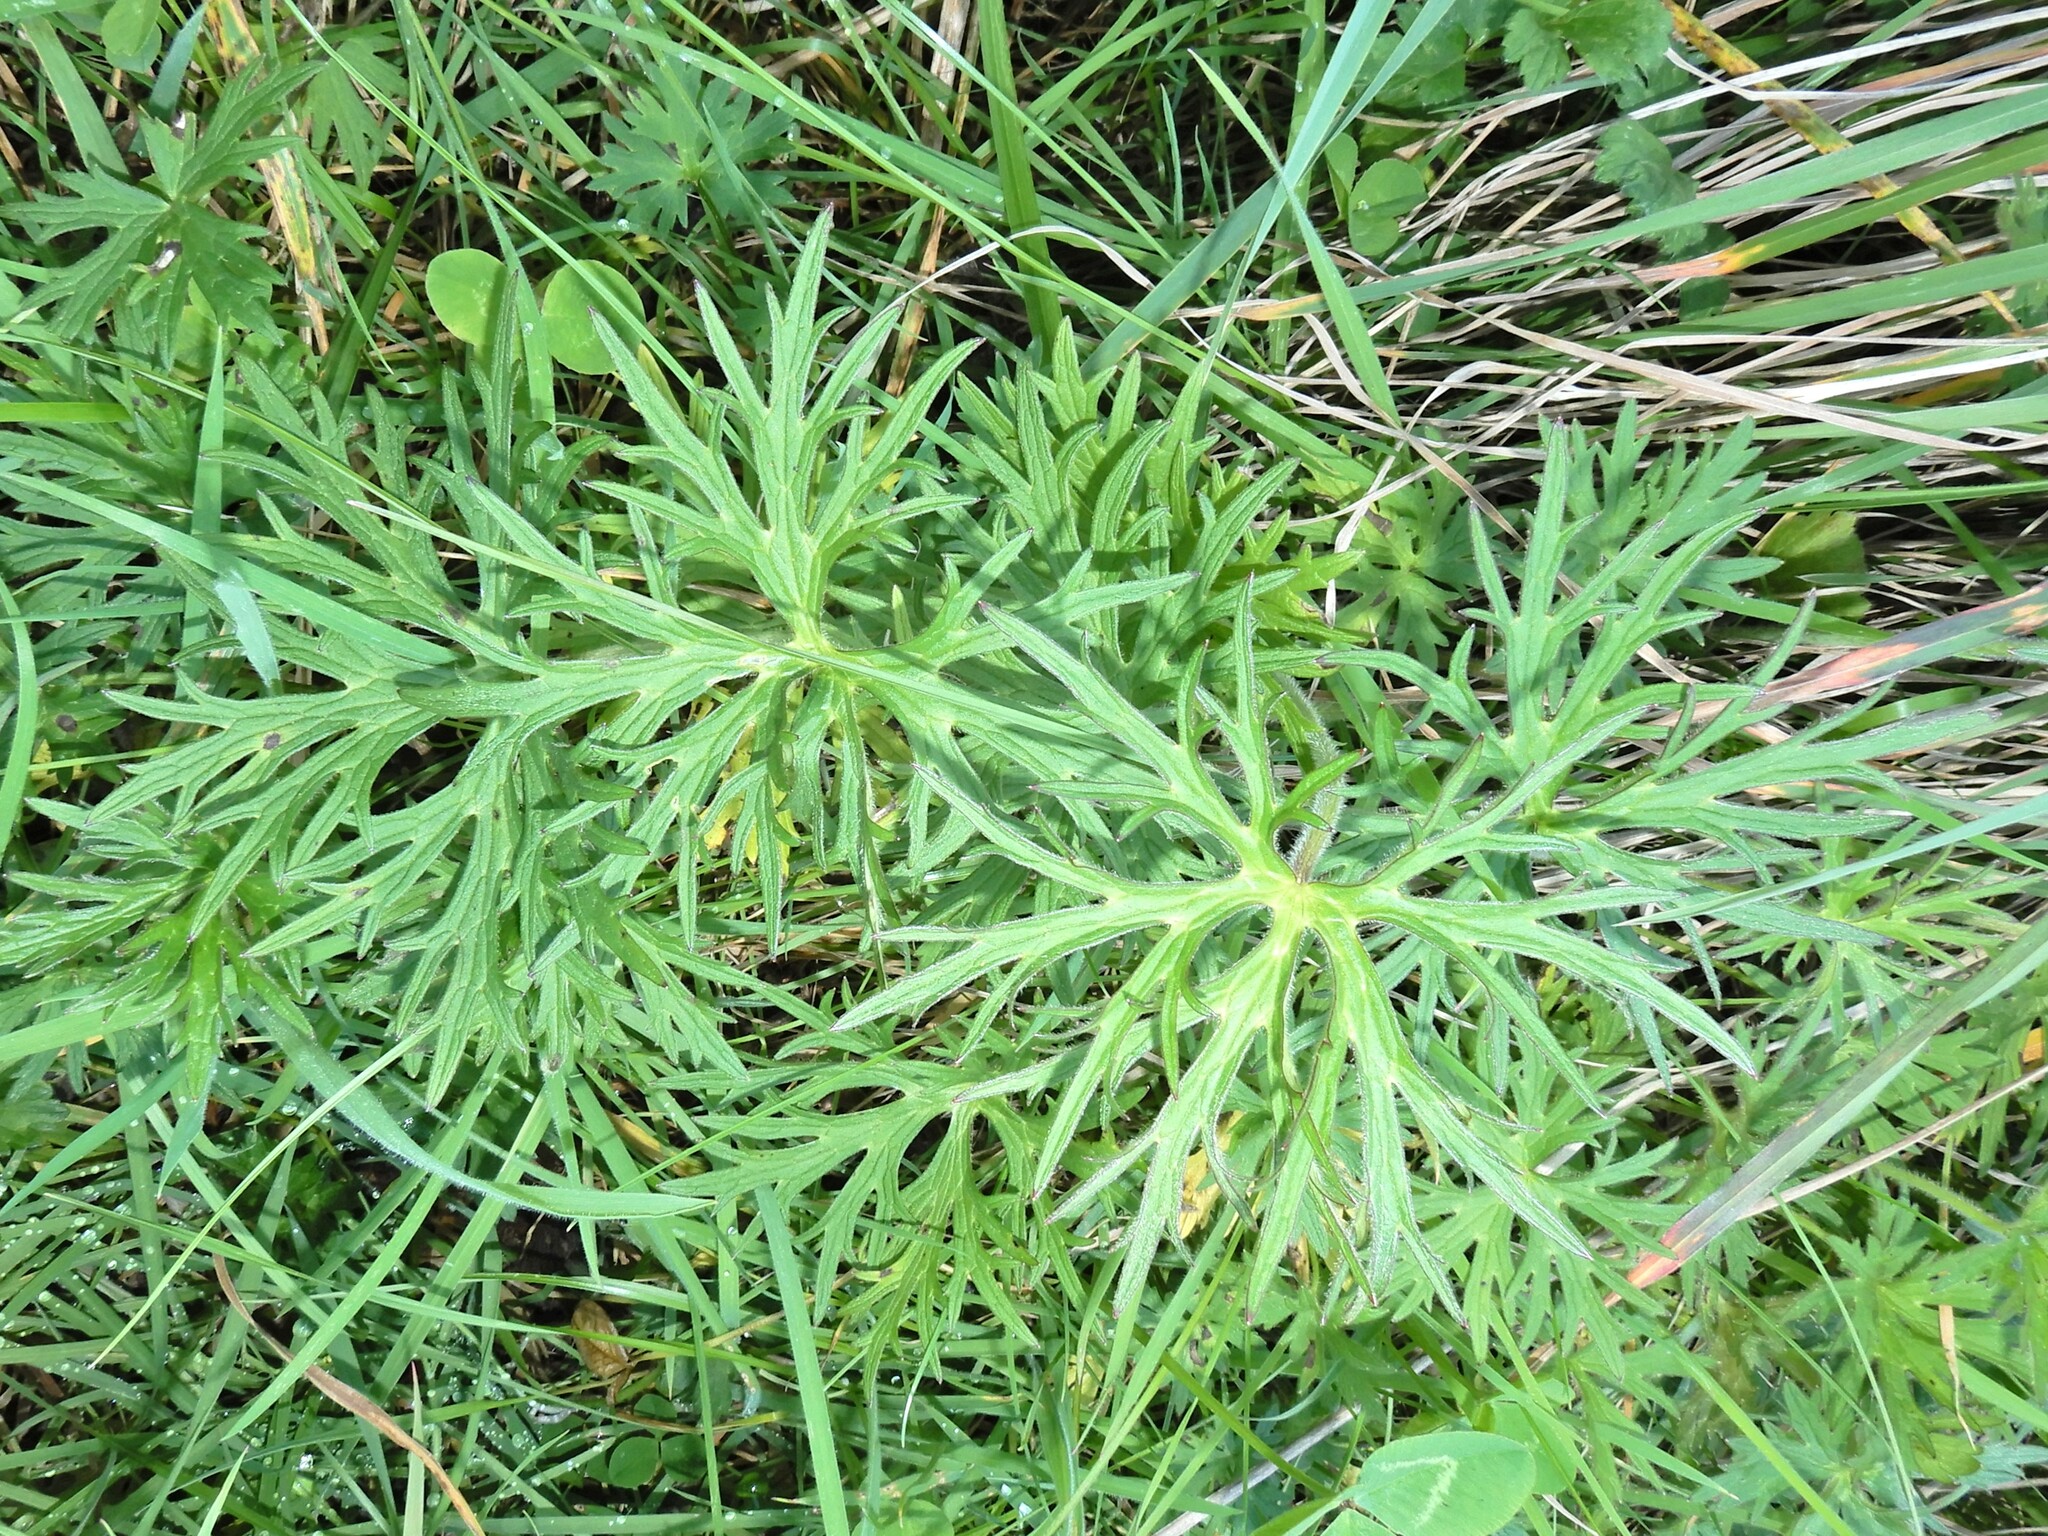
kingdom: Plantae
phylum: Tracheophyta
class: Magnoliopsida
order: Ranunculales
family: Ranunculaceae
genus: Ranunculus
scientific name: Ranunculus acris
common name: Meadow buttercup
